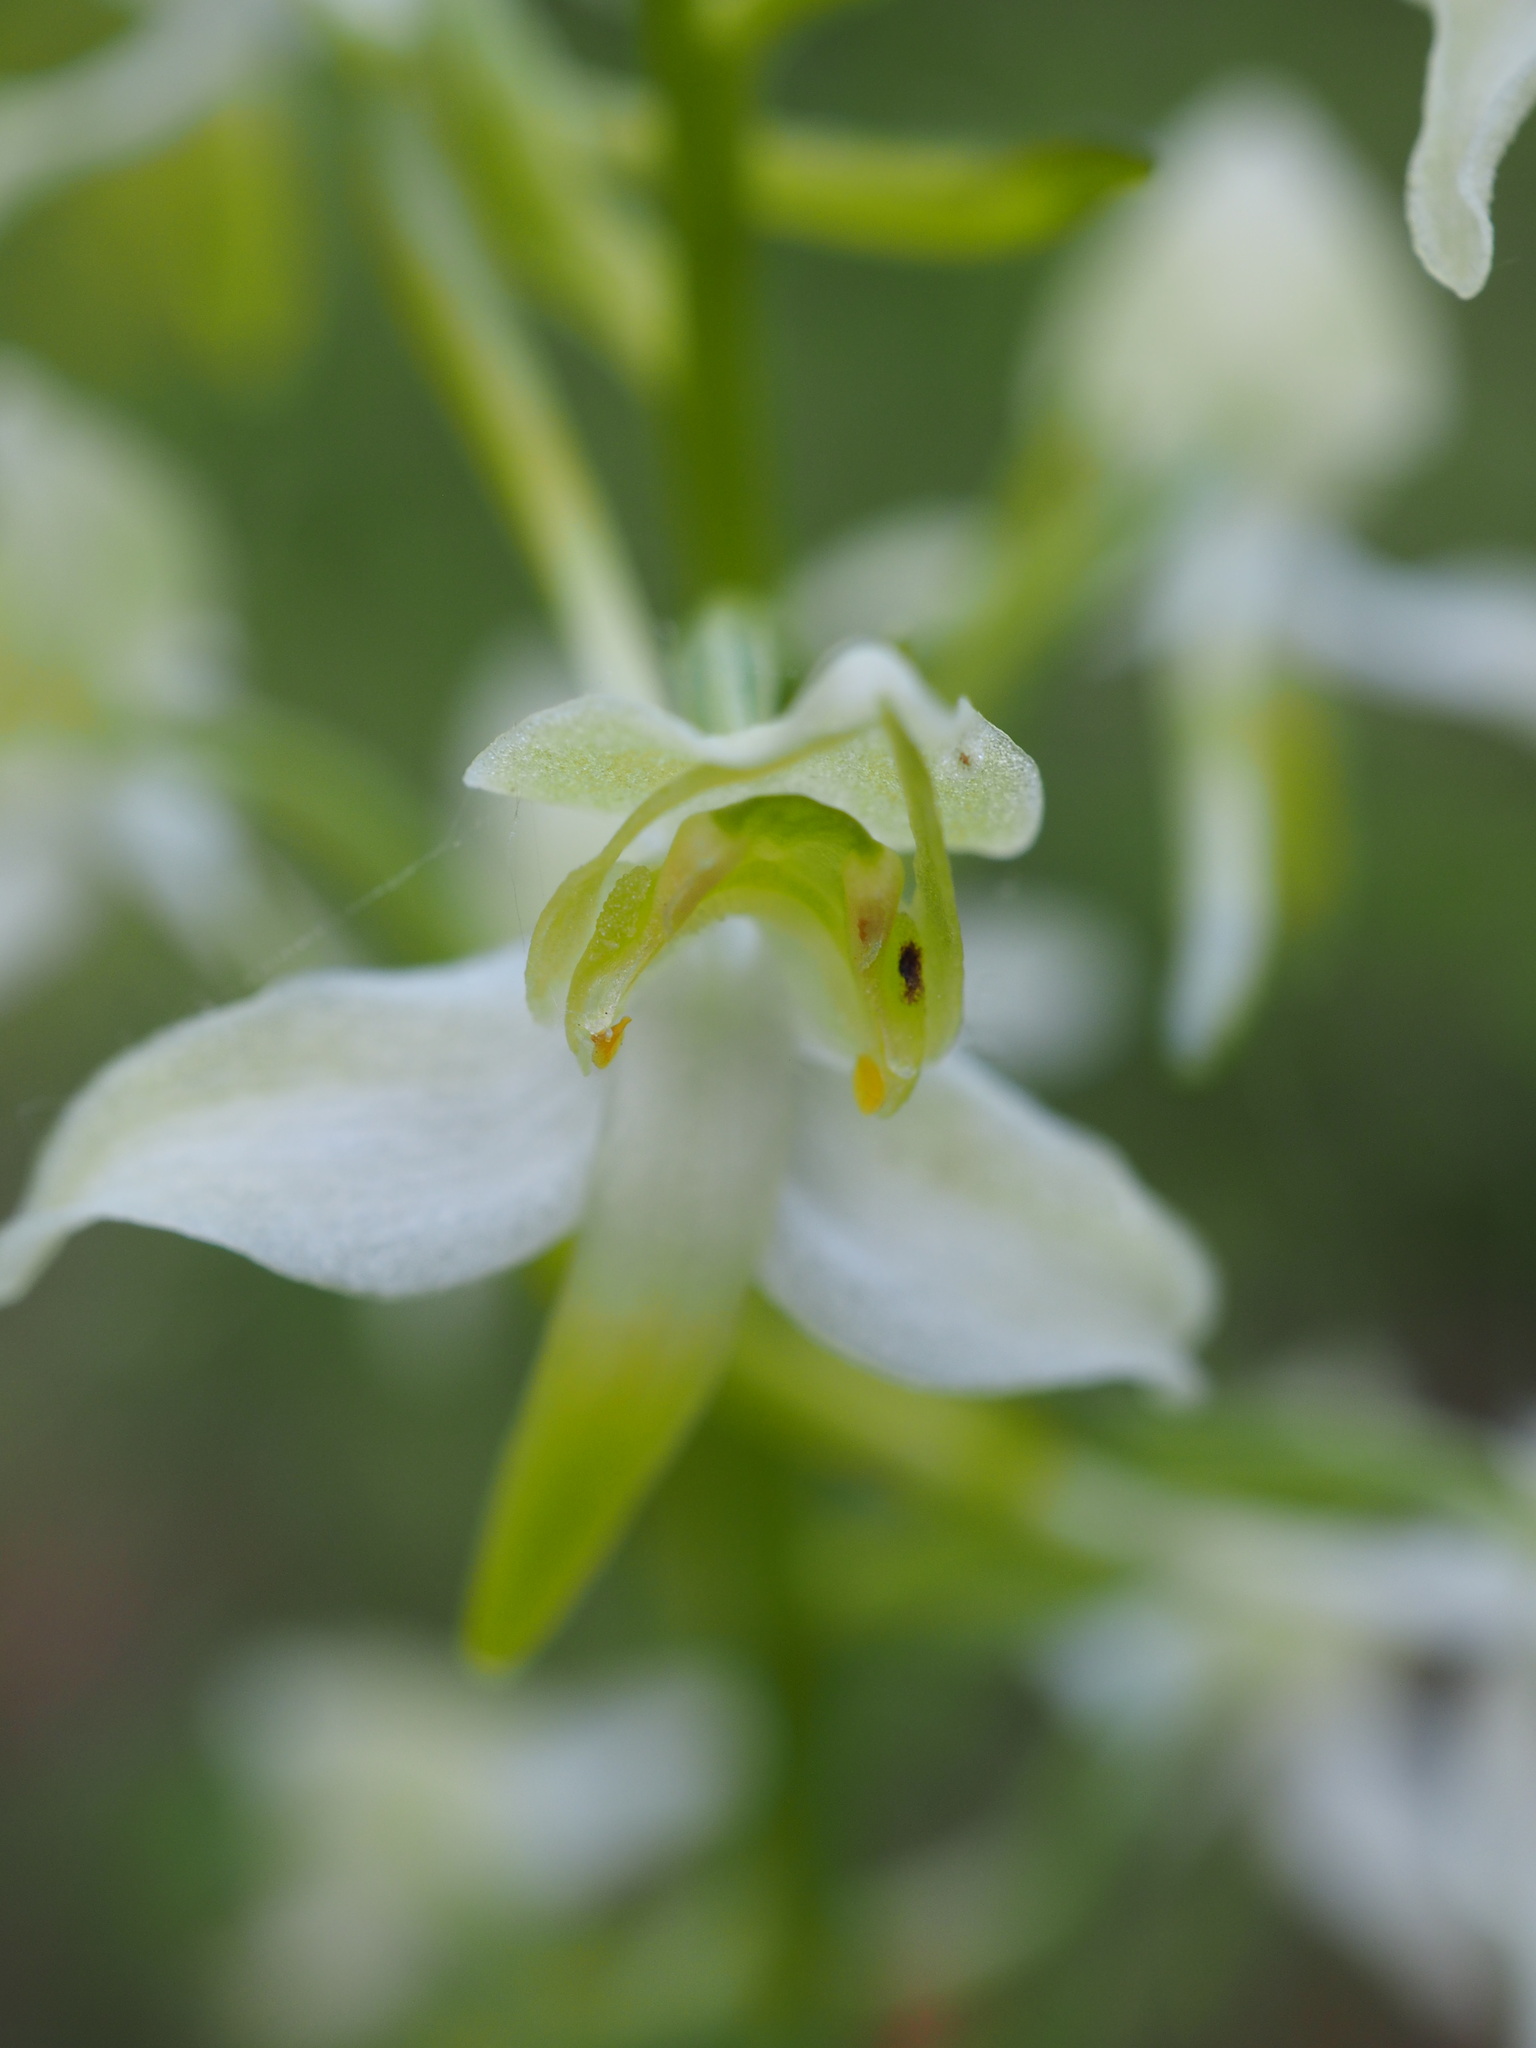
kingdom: Plantae
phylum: Tracheophyta
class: Liliopsida
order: Asparagales
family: Orchidaceae
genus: Platanthera
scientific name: Platanthera chlorantha
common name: Greater butterfly-orchid
